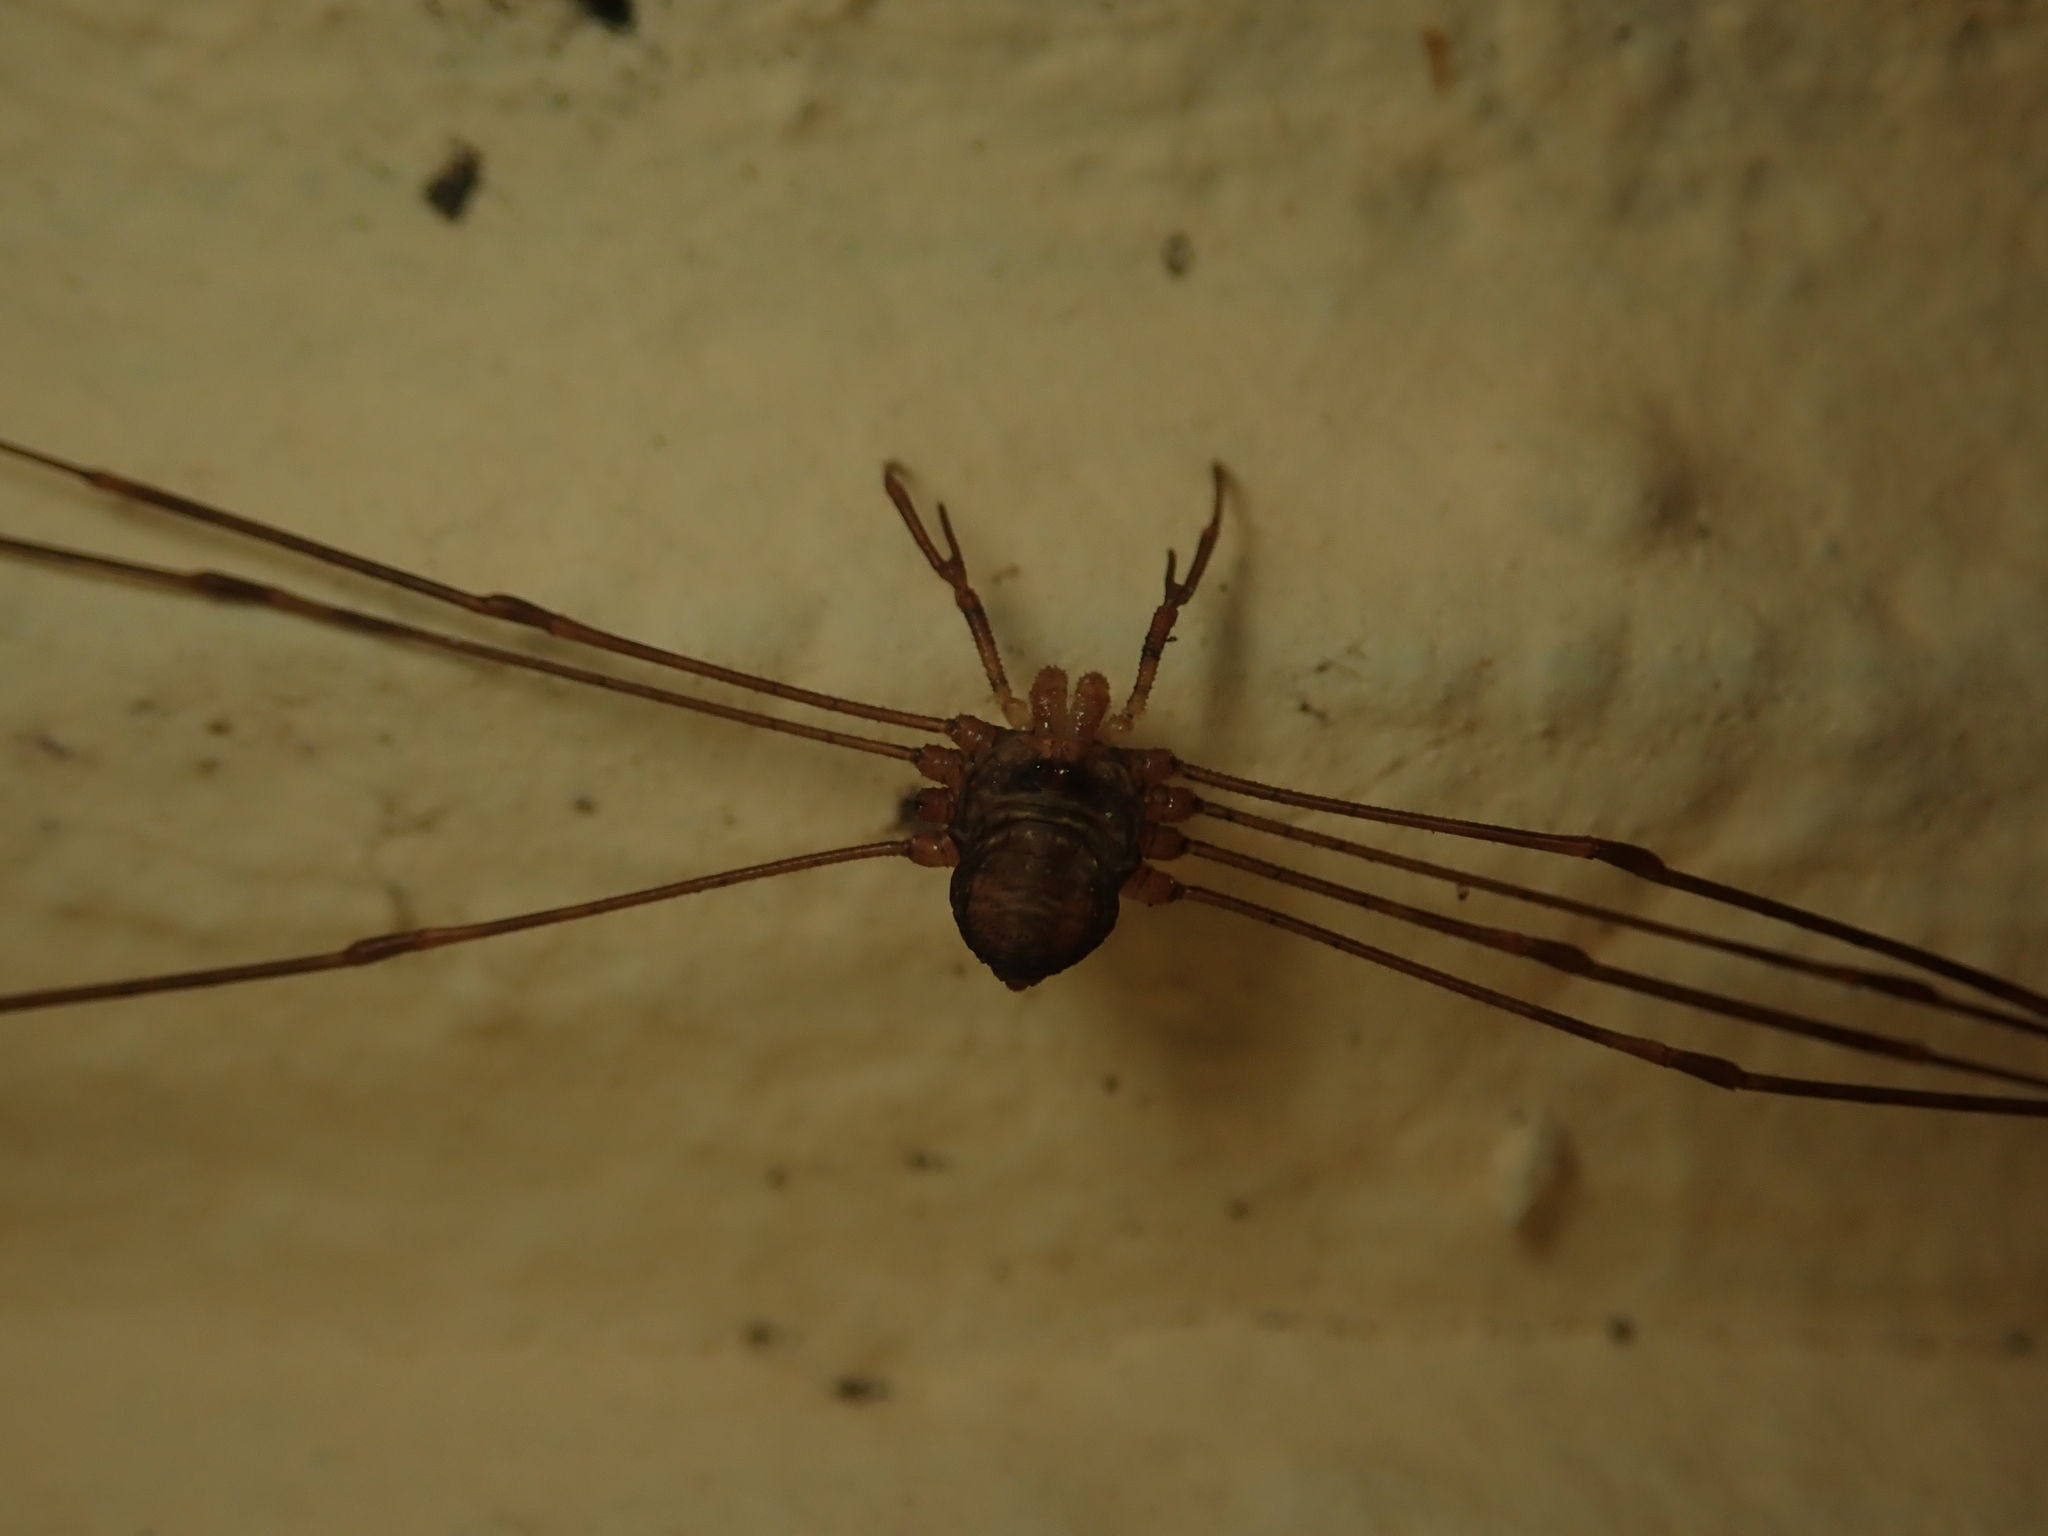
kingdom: Animalia
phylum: Arthropoda
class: Arachnida
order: Opiliones
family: Phalangiidae
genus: Dicranopalpus
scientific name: Dicranopalpus ramosus
